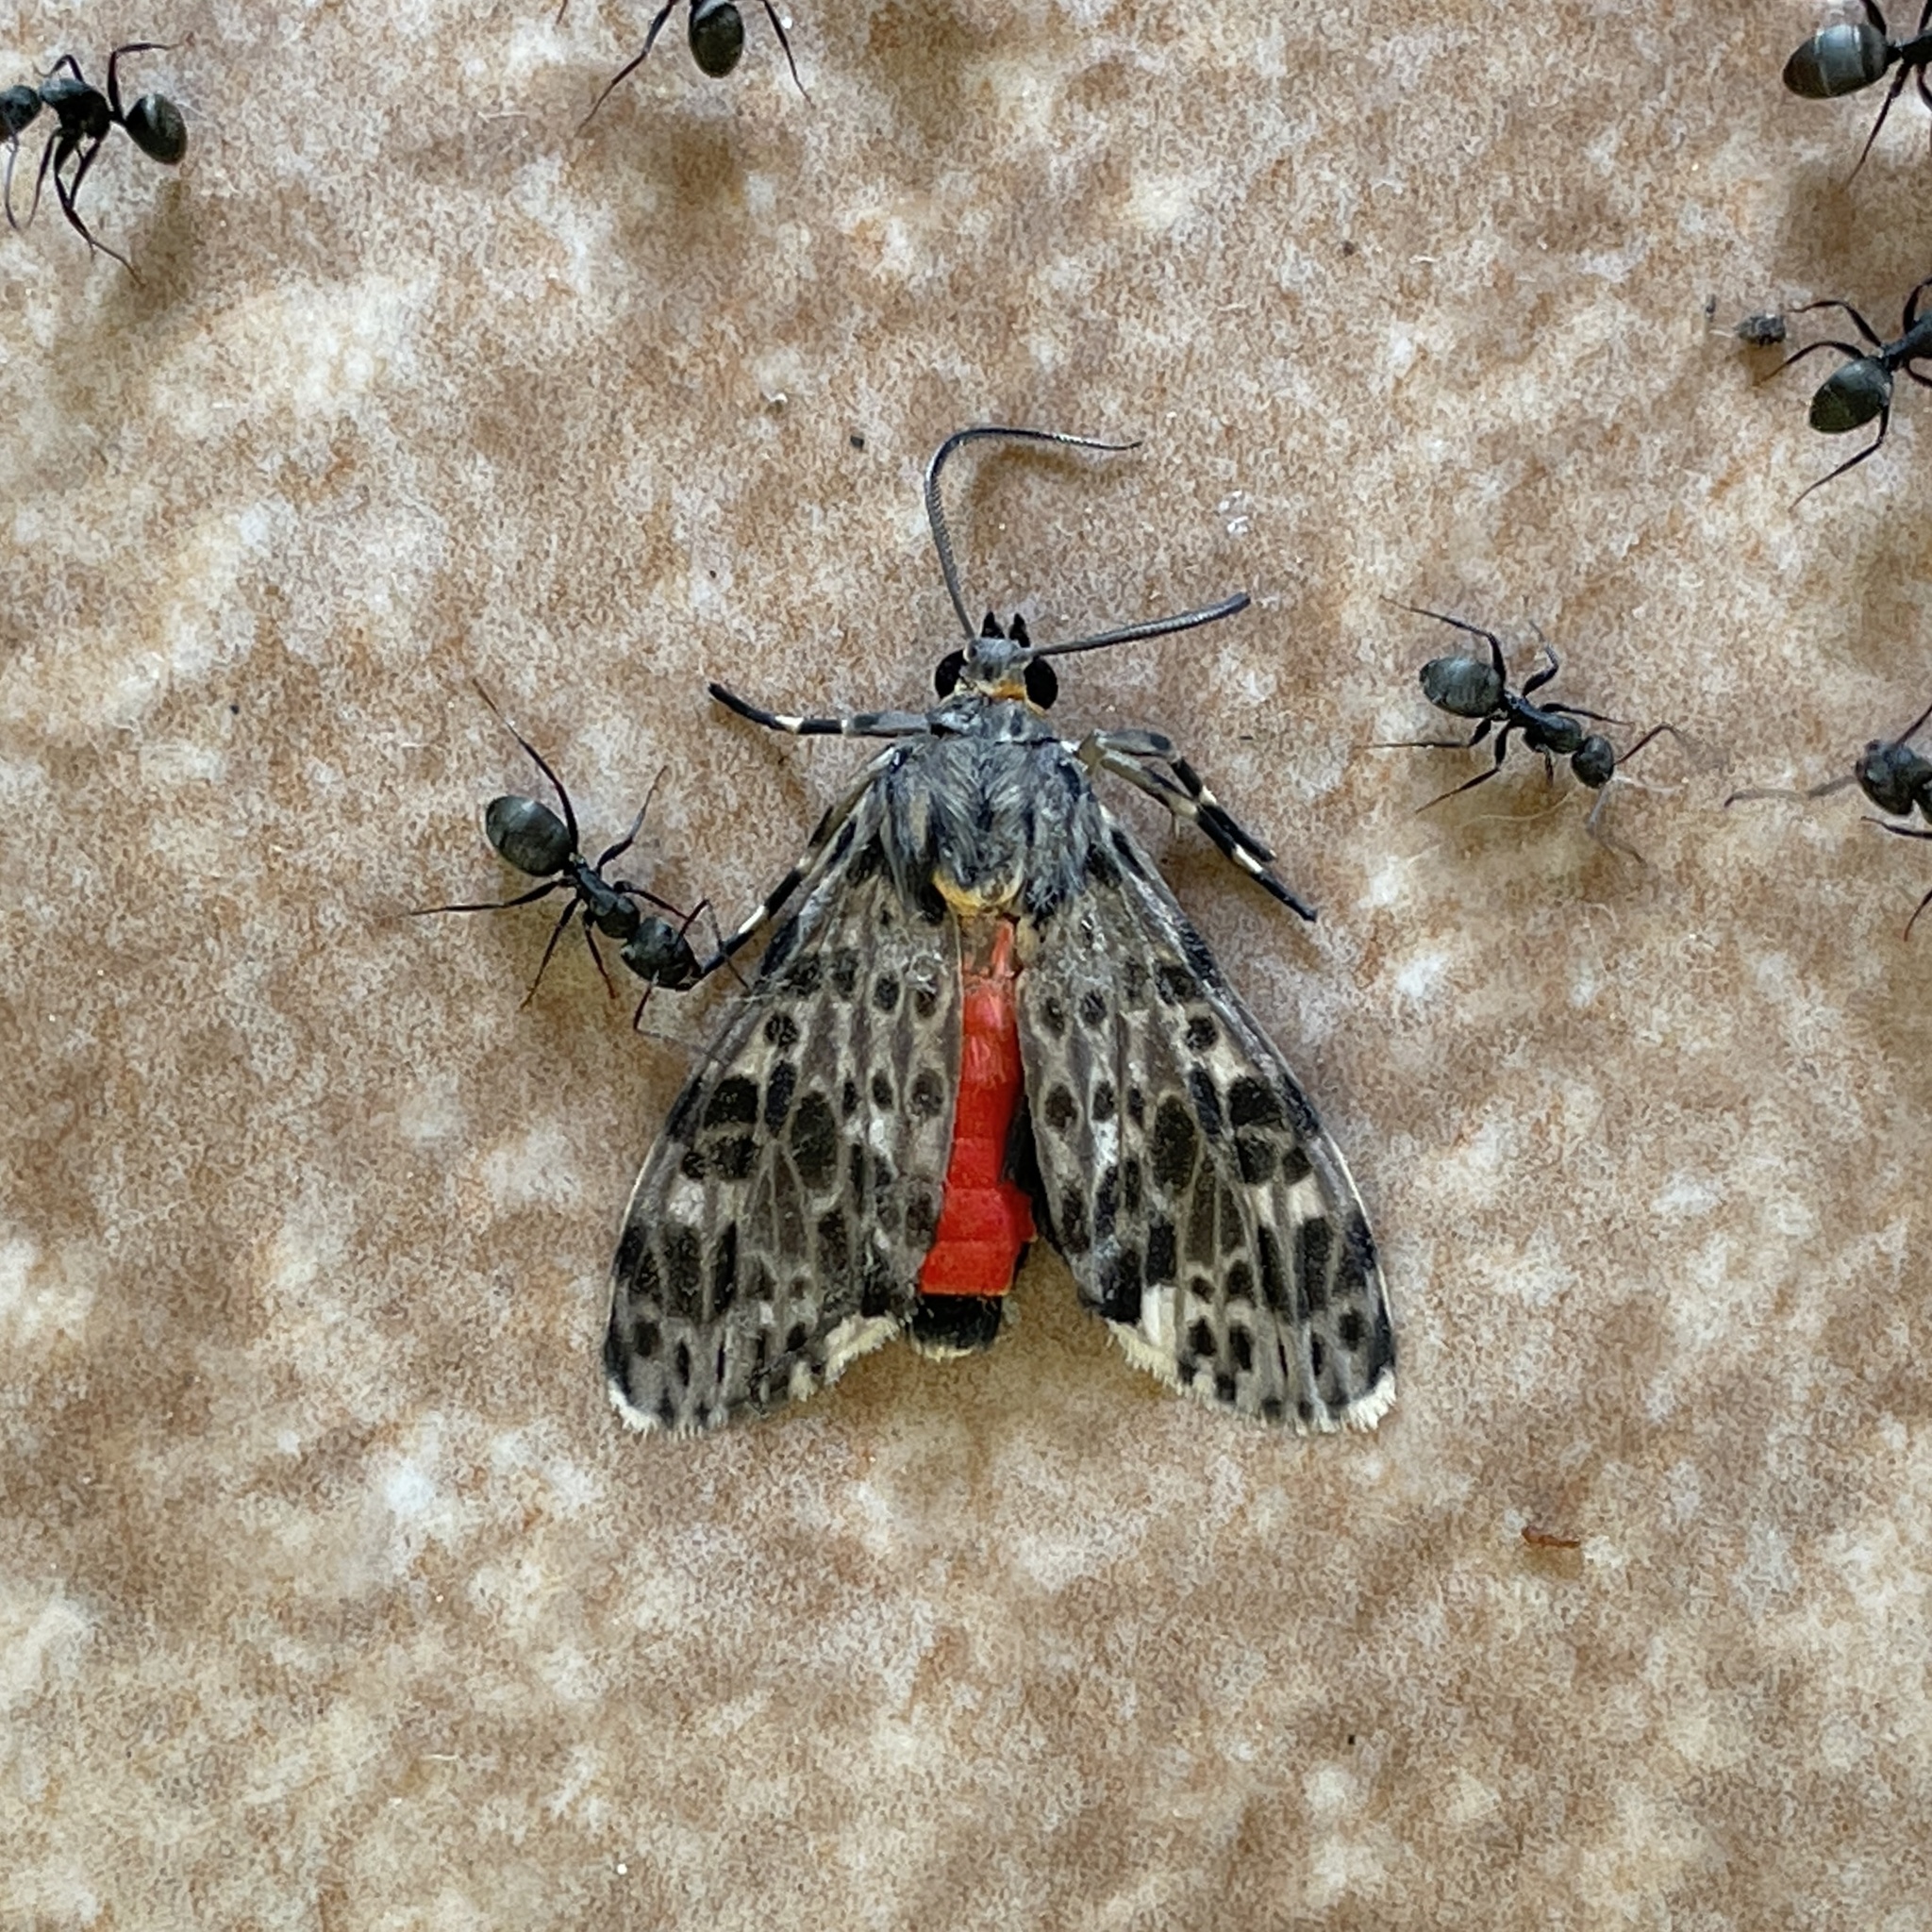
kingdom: Animalia
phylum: Arthropoda
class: Insecta
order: Lepidoptera
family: Erebidae
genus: Eucereon
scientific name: Eucereon punctata
